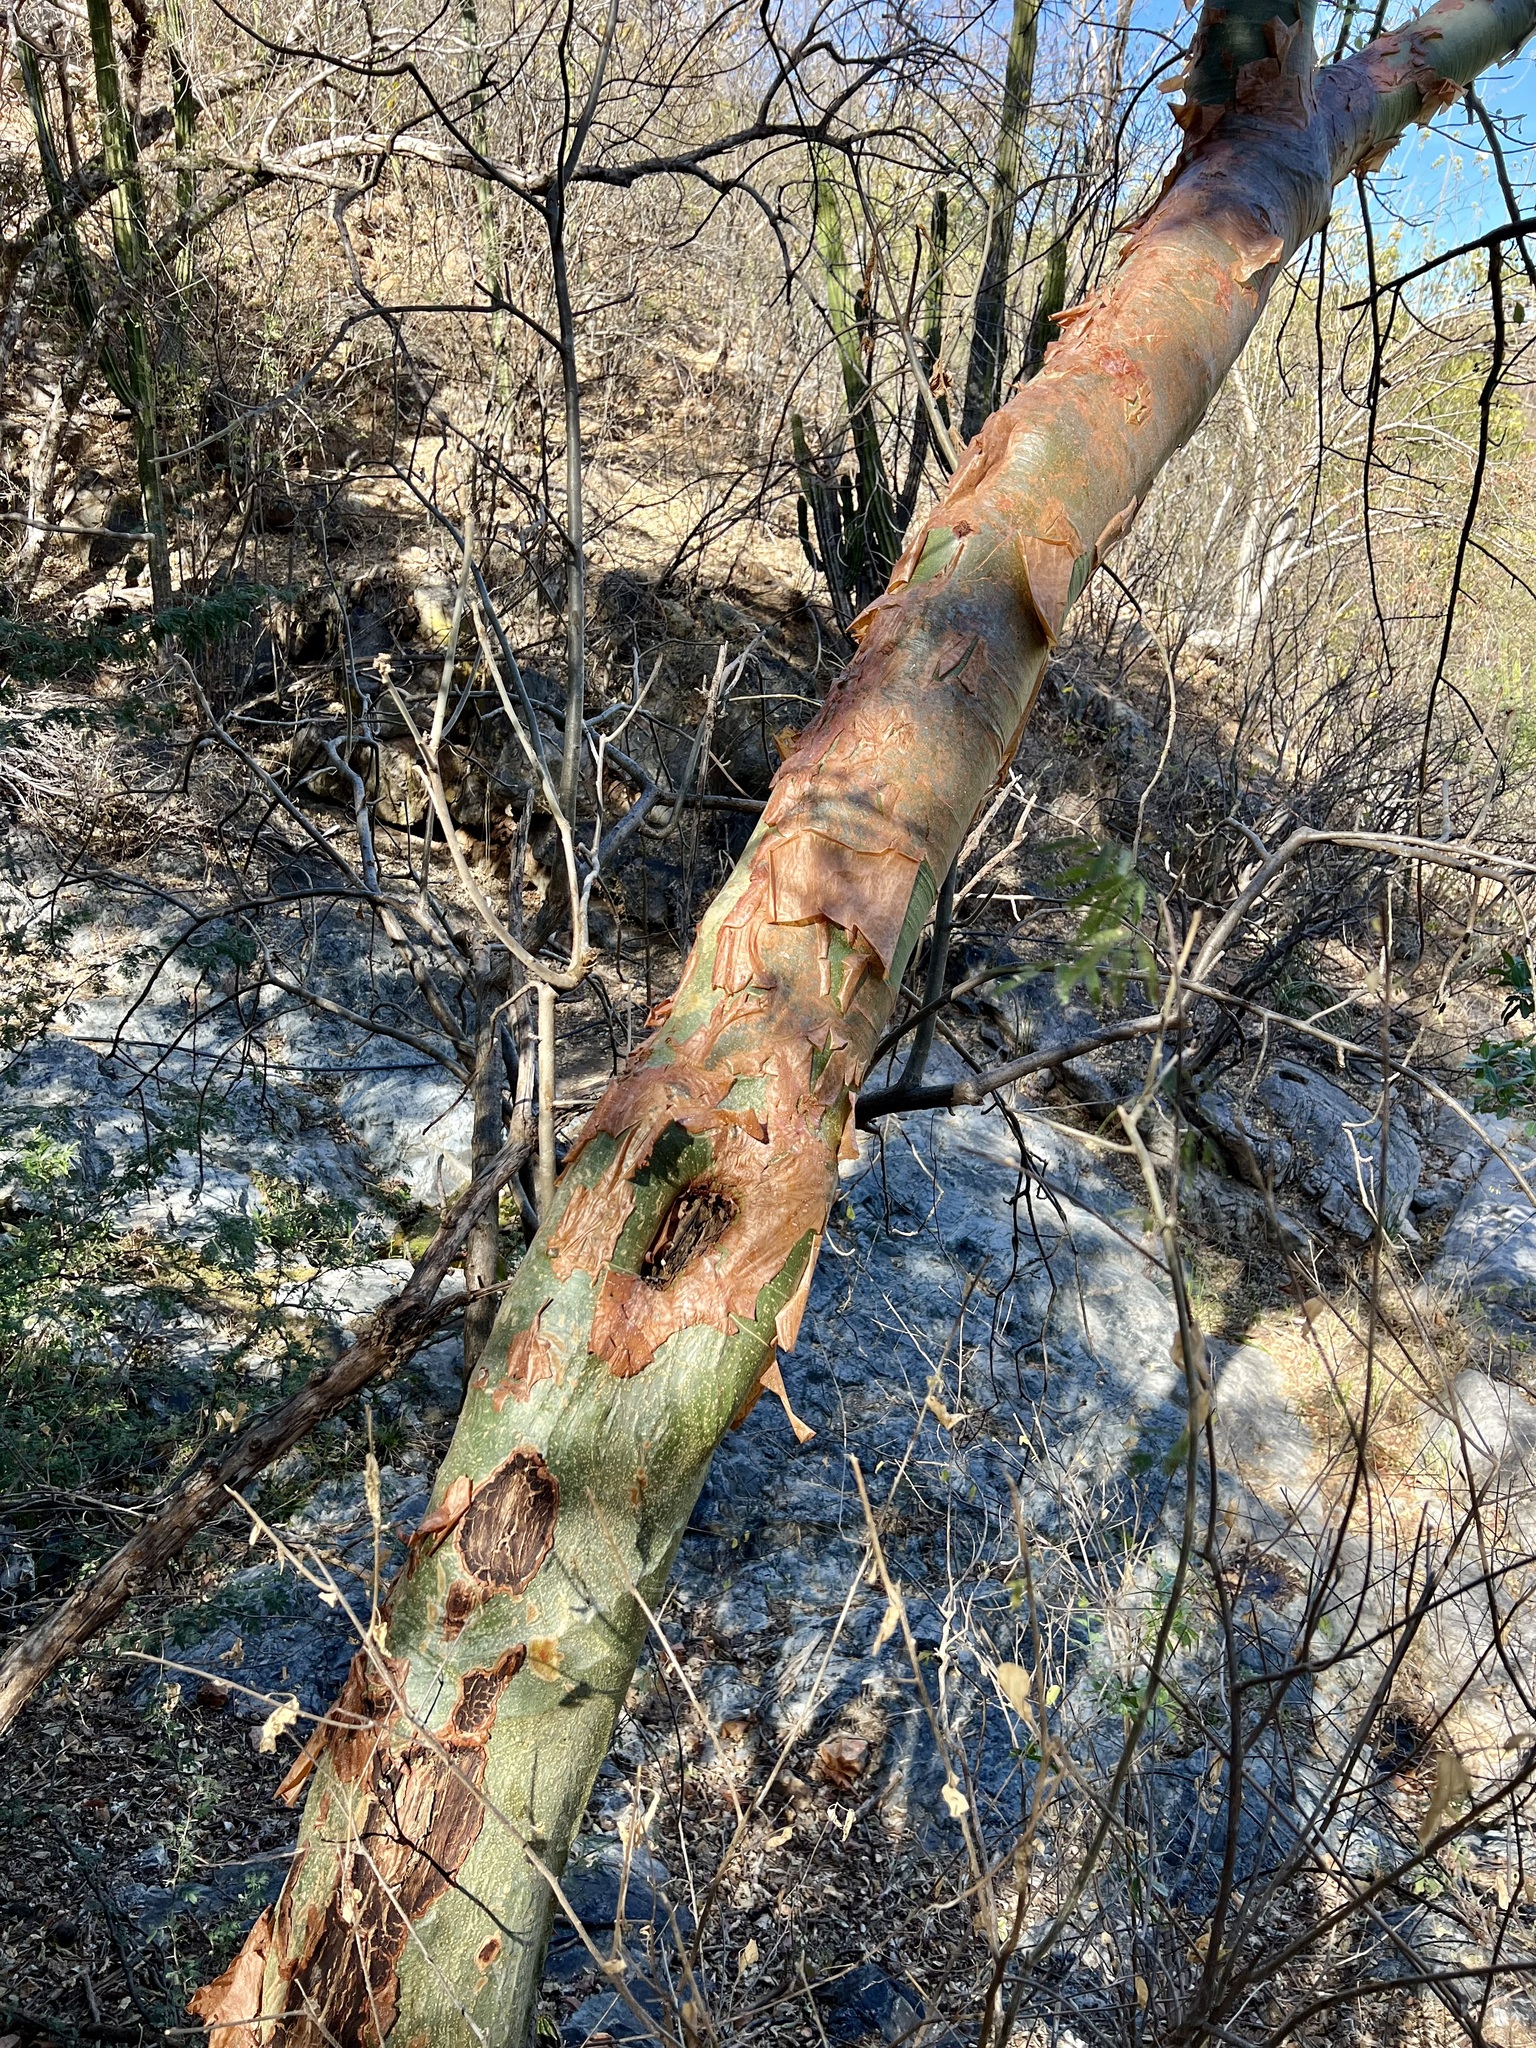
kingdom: Plantae
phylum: Tracheophyta
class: Magnoliopsida
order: Sapindales
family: Burseraceae
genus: Bursera
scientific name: Bursera grandifolia
